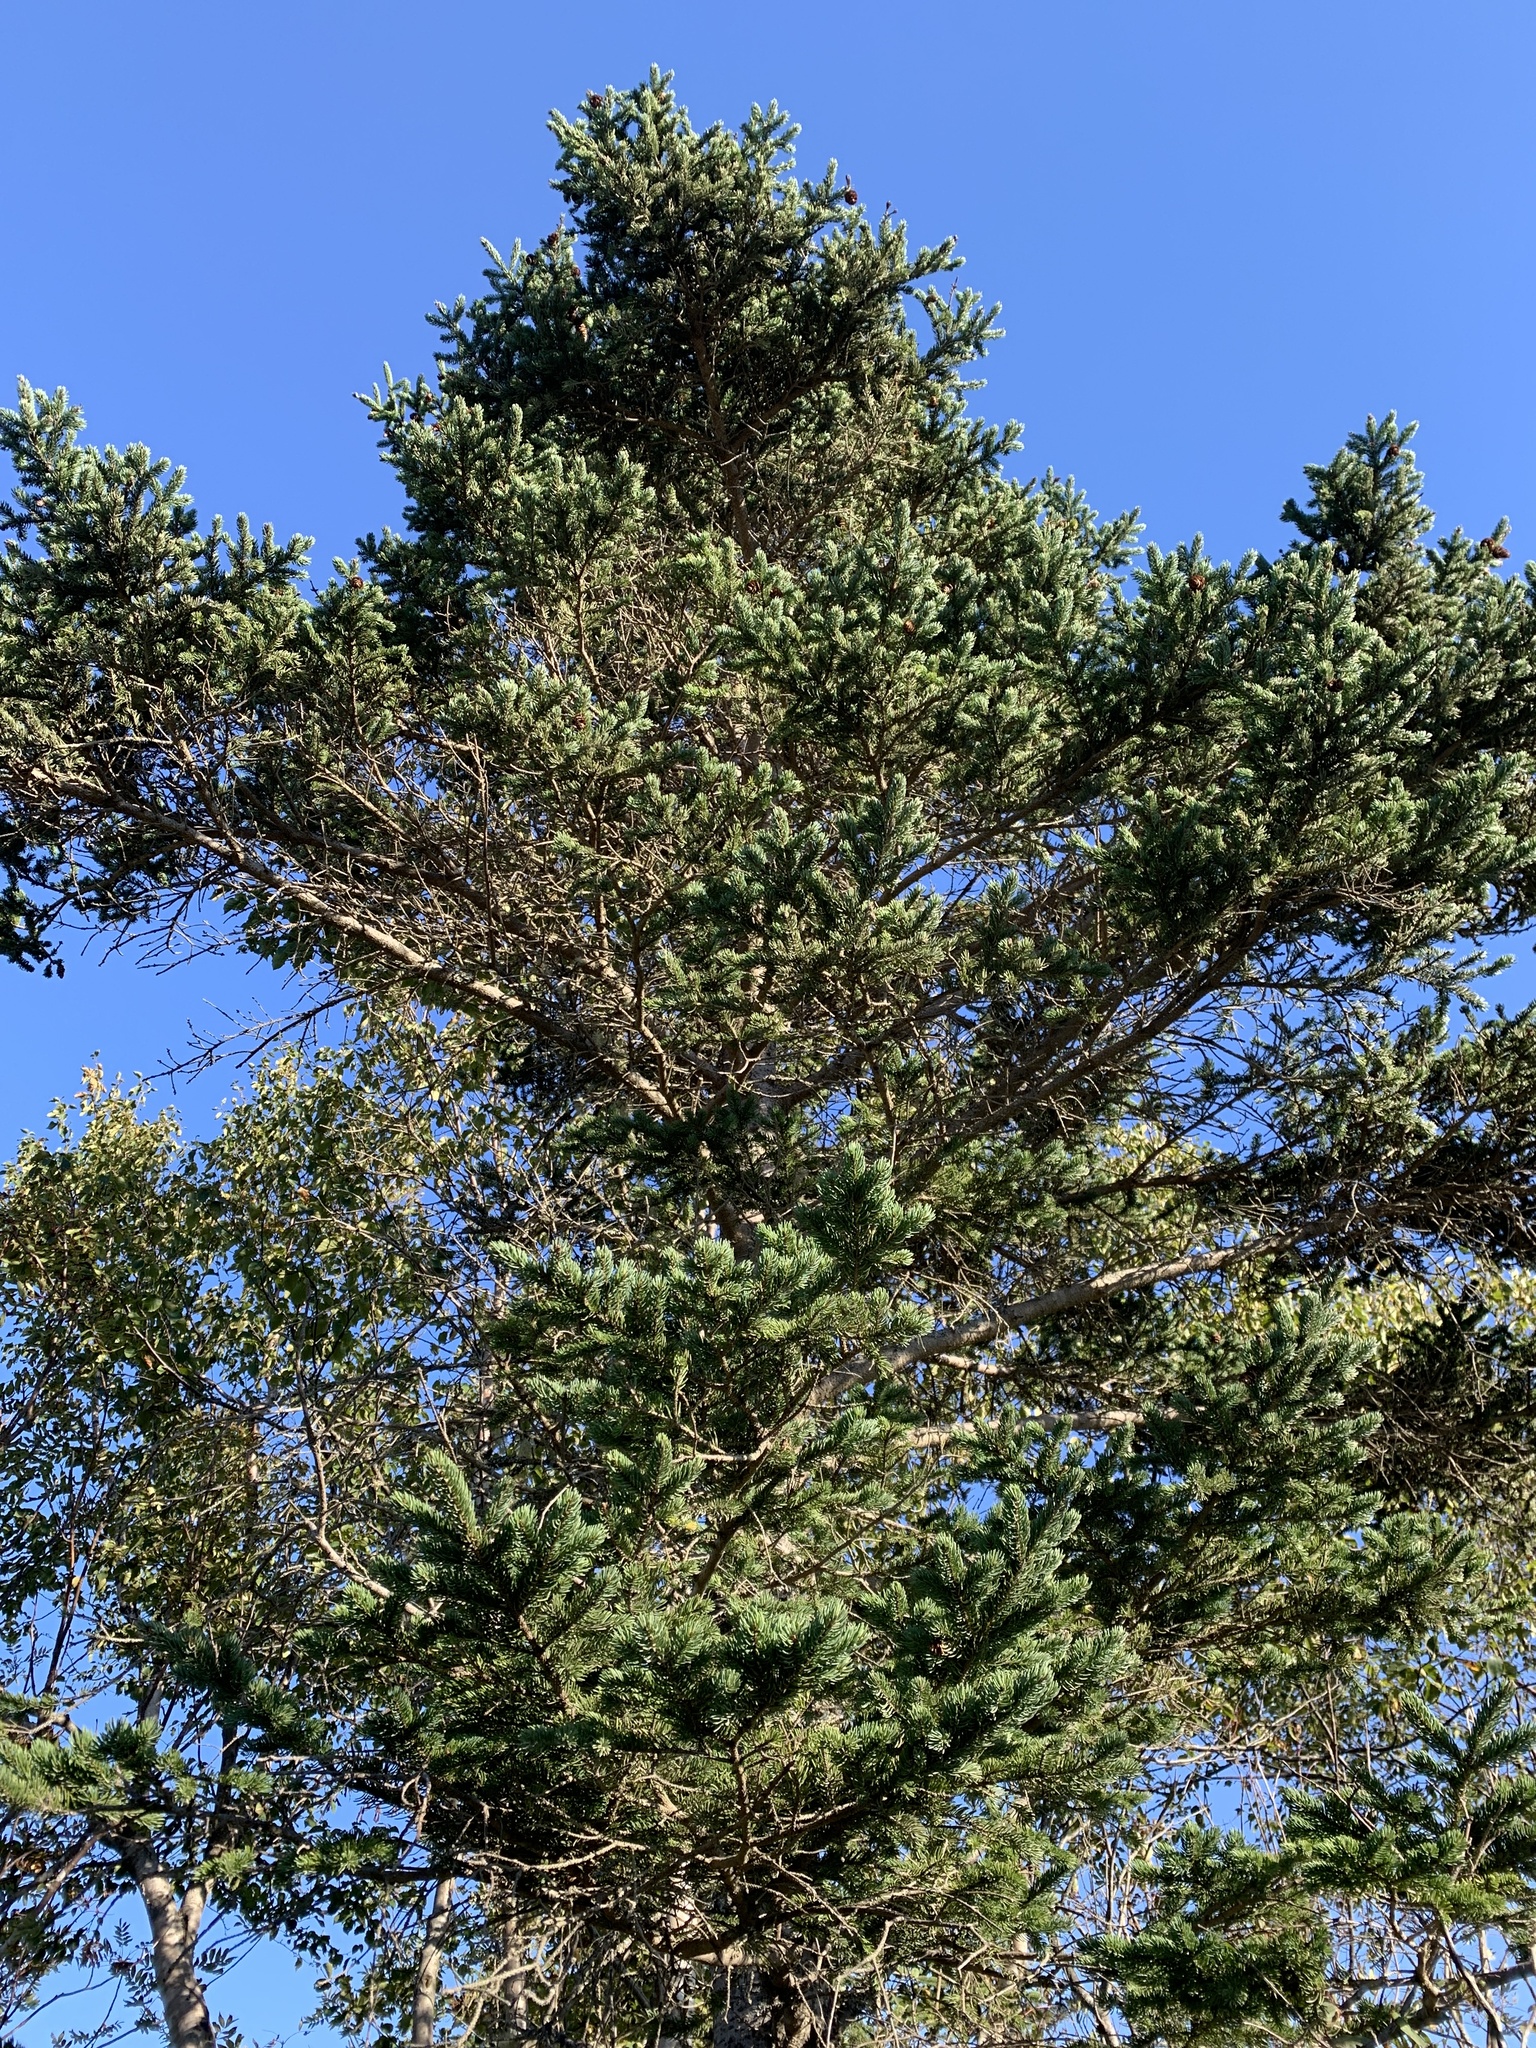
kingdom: Plantae
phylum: Tracheophyta
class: Pinopsida
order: Pinales
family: Pinaceae
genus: Picea
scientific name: Picea glauca
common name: White spruce
